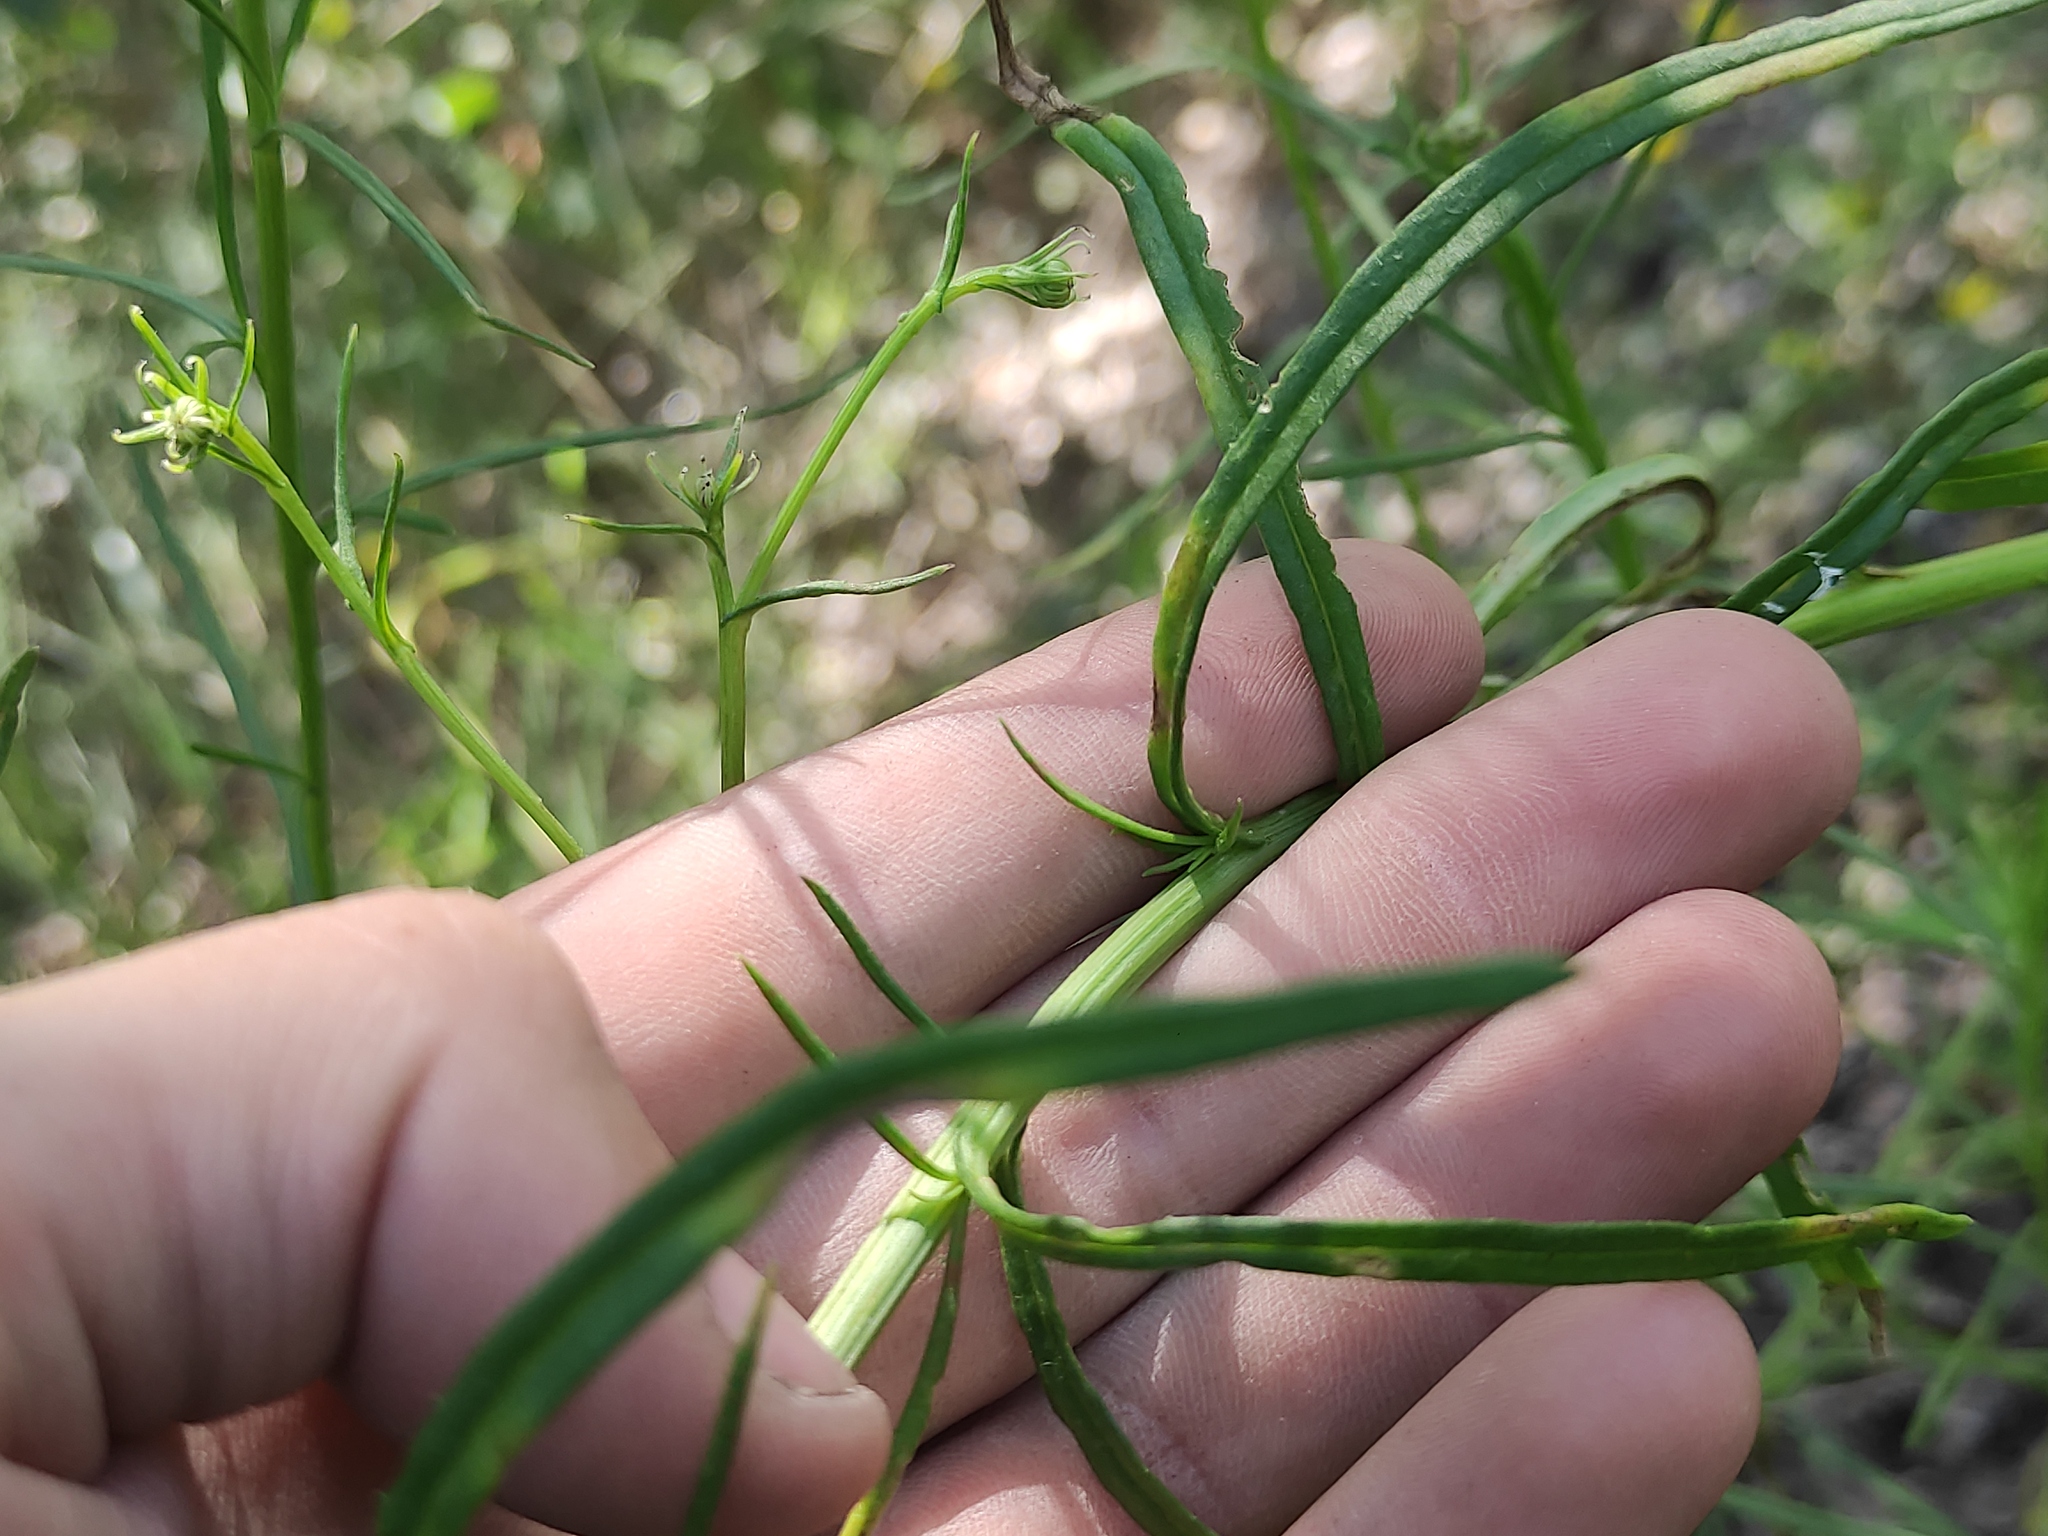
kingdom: Plantae
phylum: Tracheophyta
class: Magnoliopsida
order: Asterales
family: Asteraceae
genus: Senecio
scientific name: Senecio inaequidens
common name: Narrow-leaved ragwort
